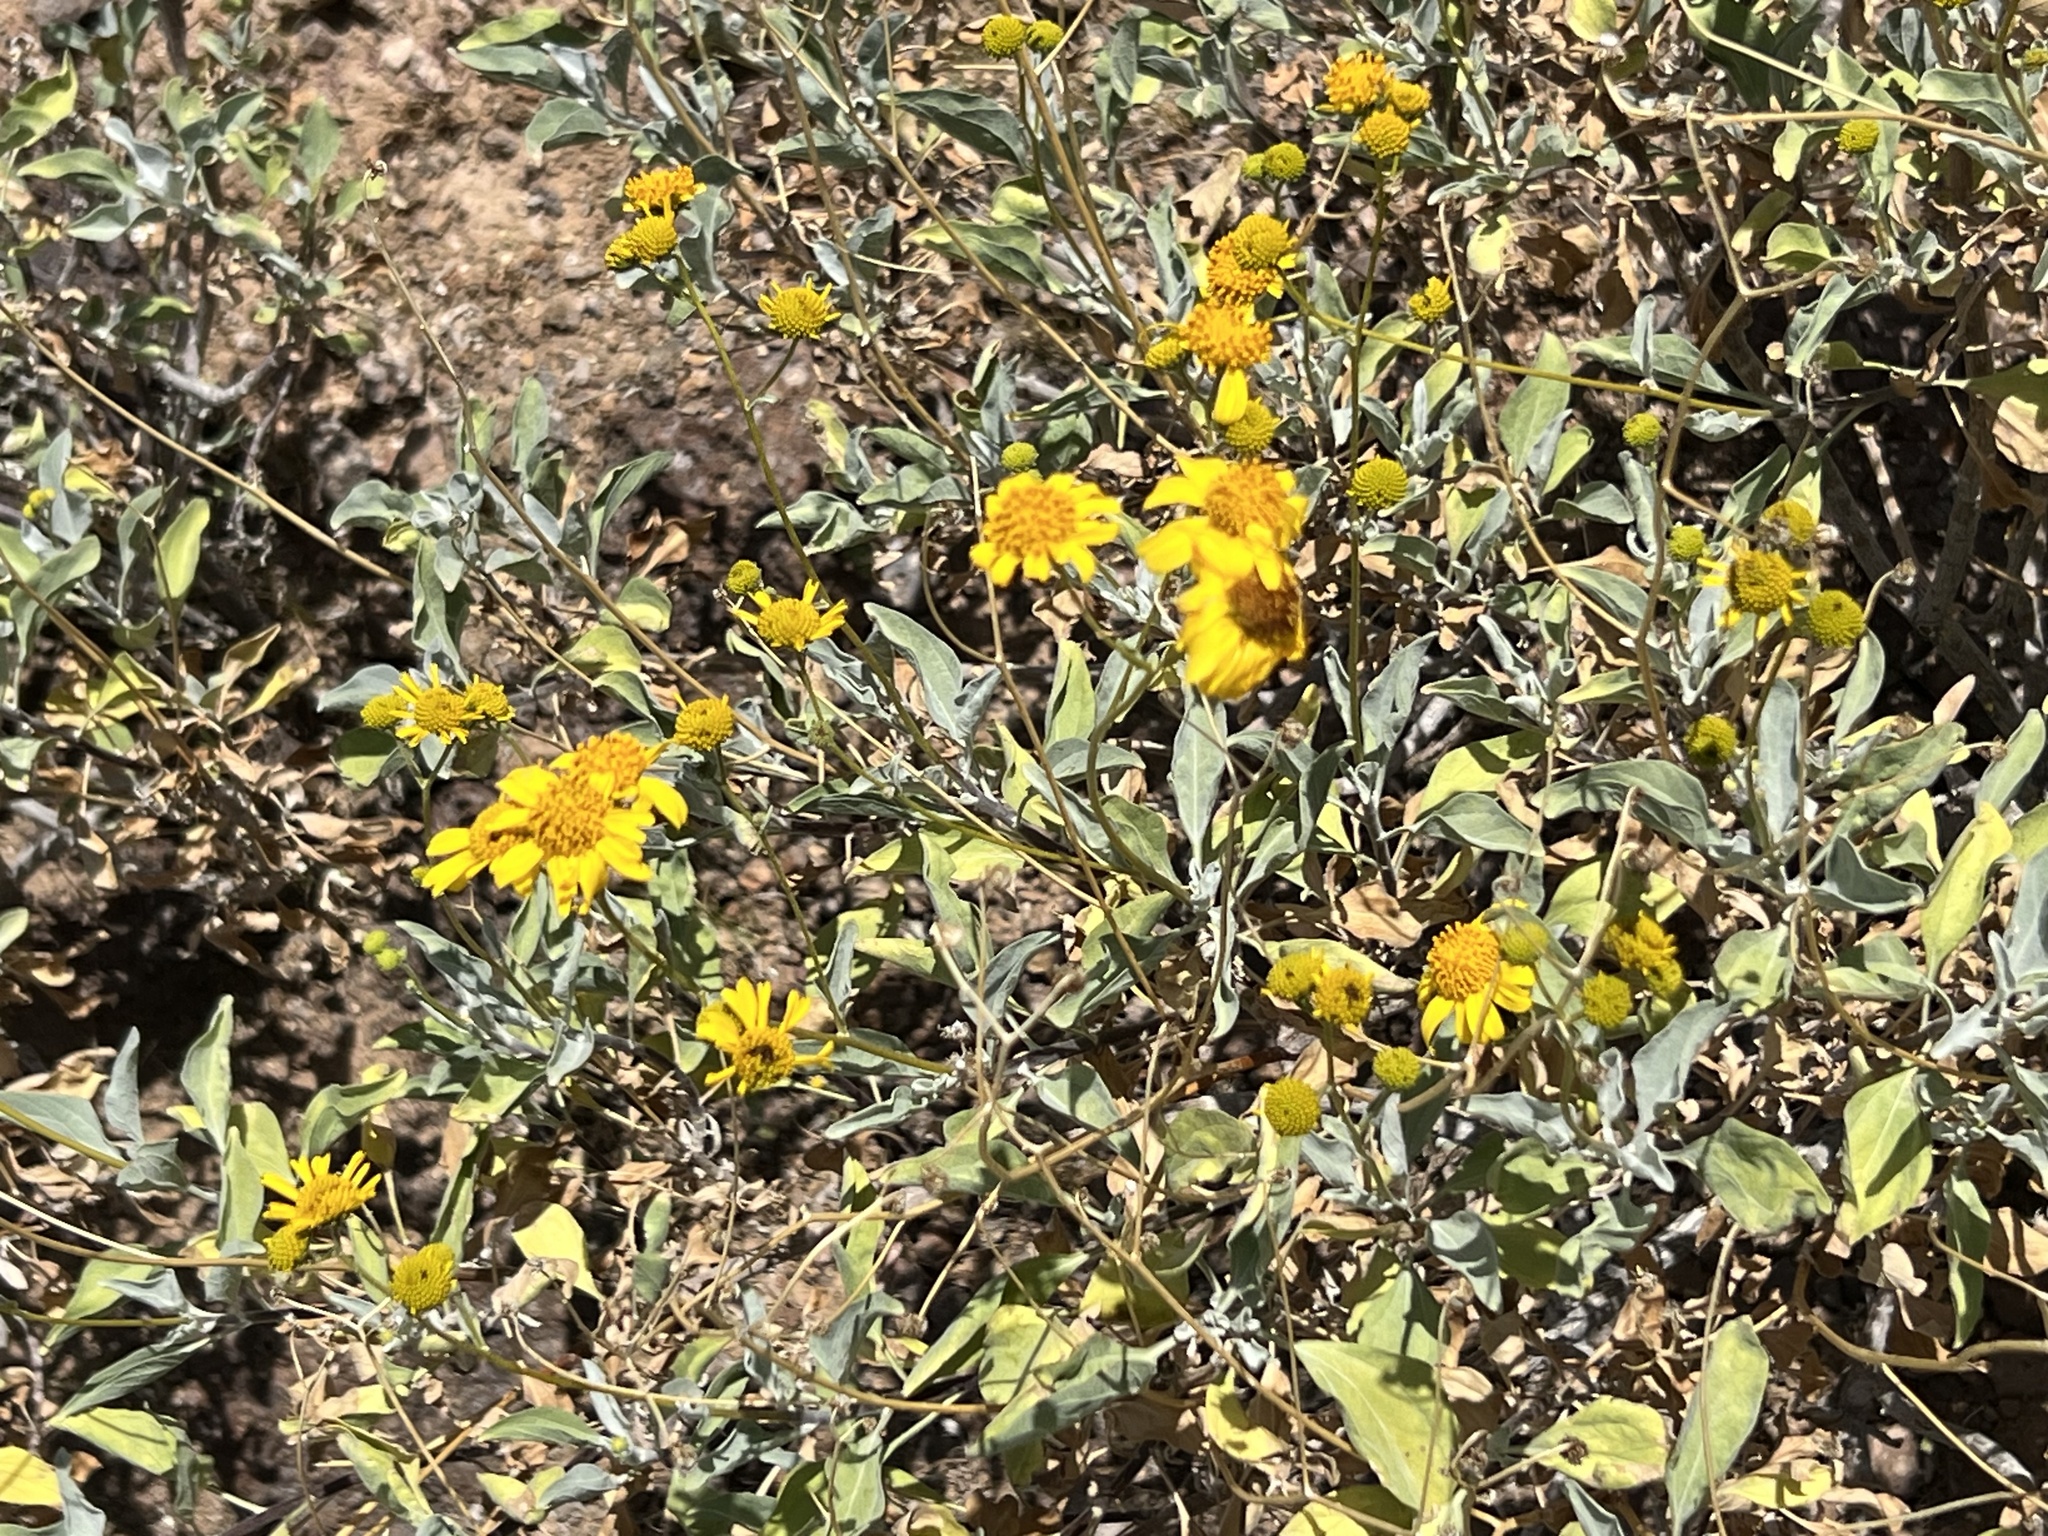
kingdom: Plantae
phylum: Tracheophyta
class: Magnoliopsida
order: Asterales
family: Asteraceae
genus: Encelia
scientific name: Encelia farinosa
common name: Brittlebush
